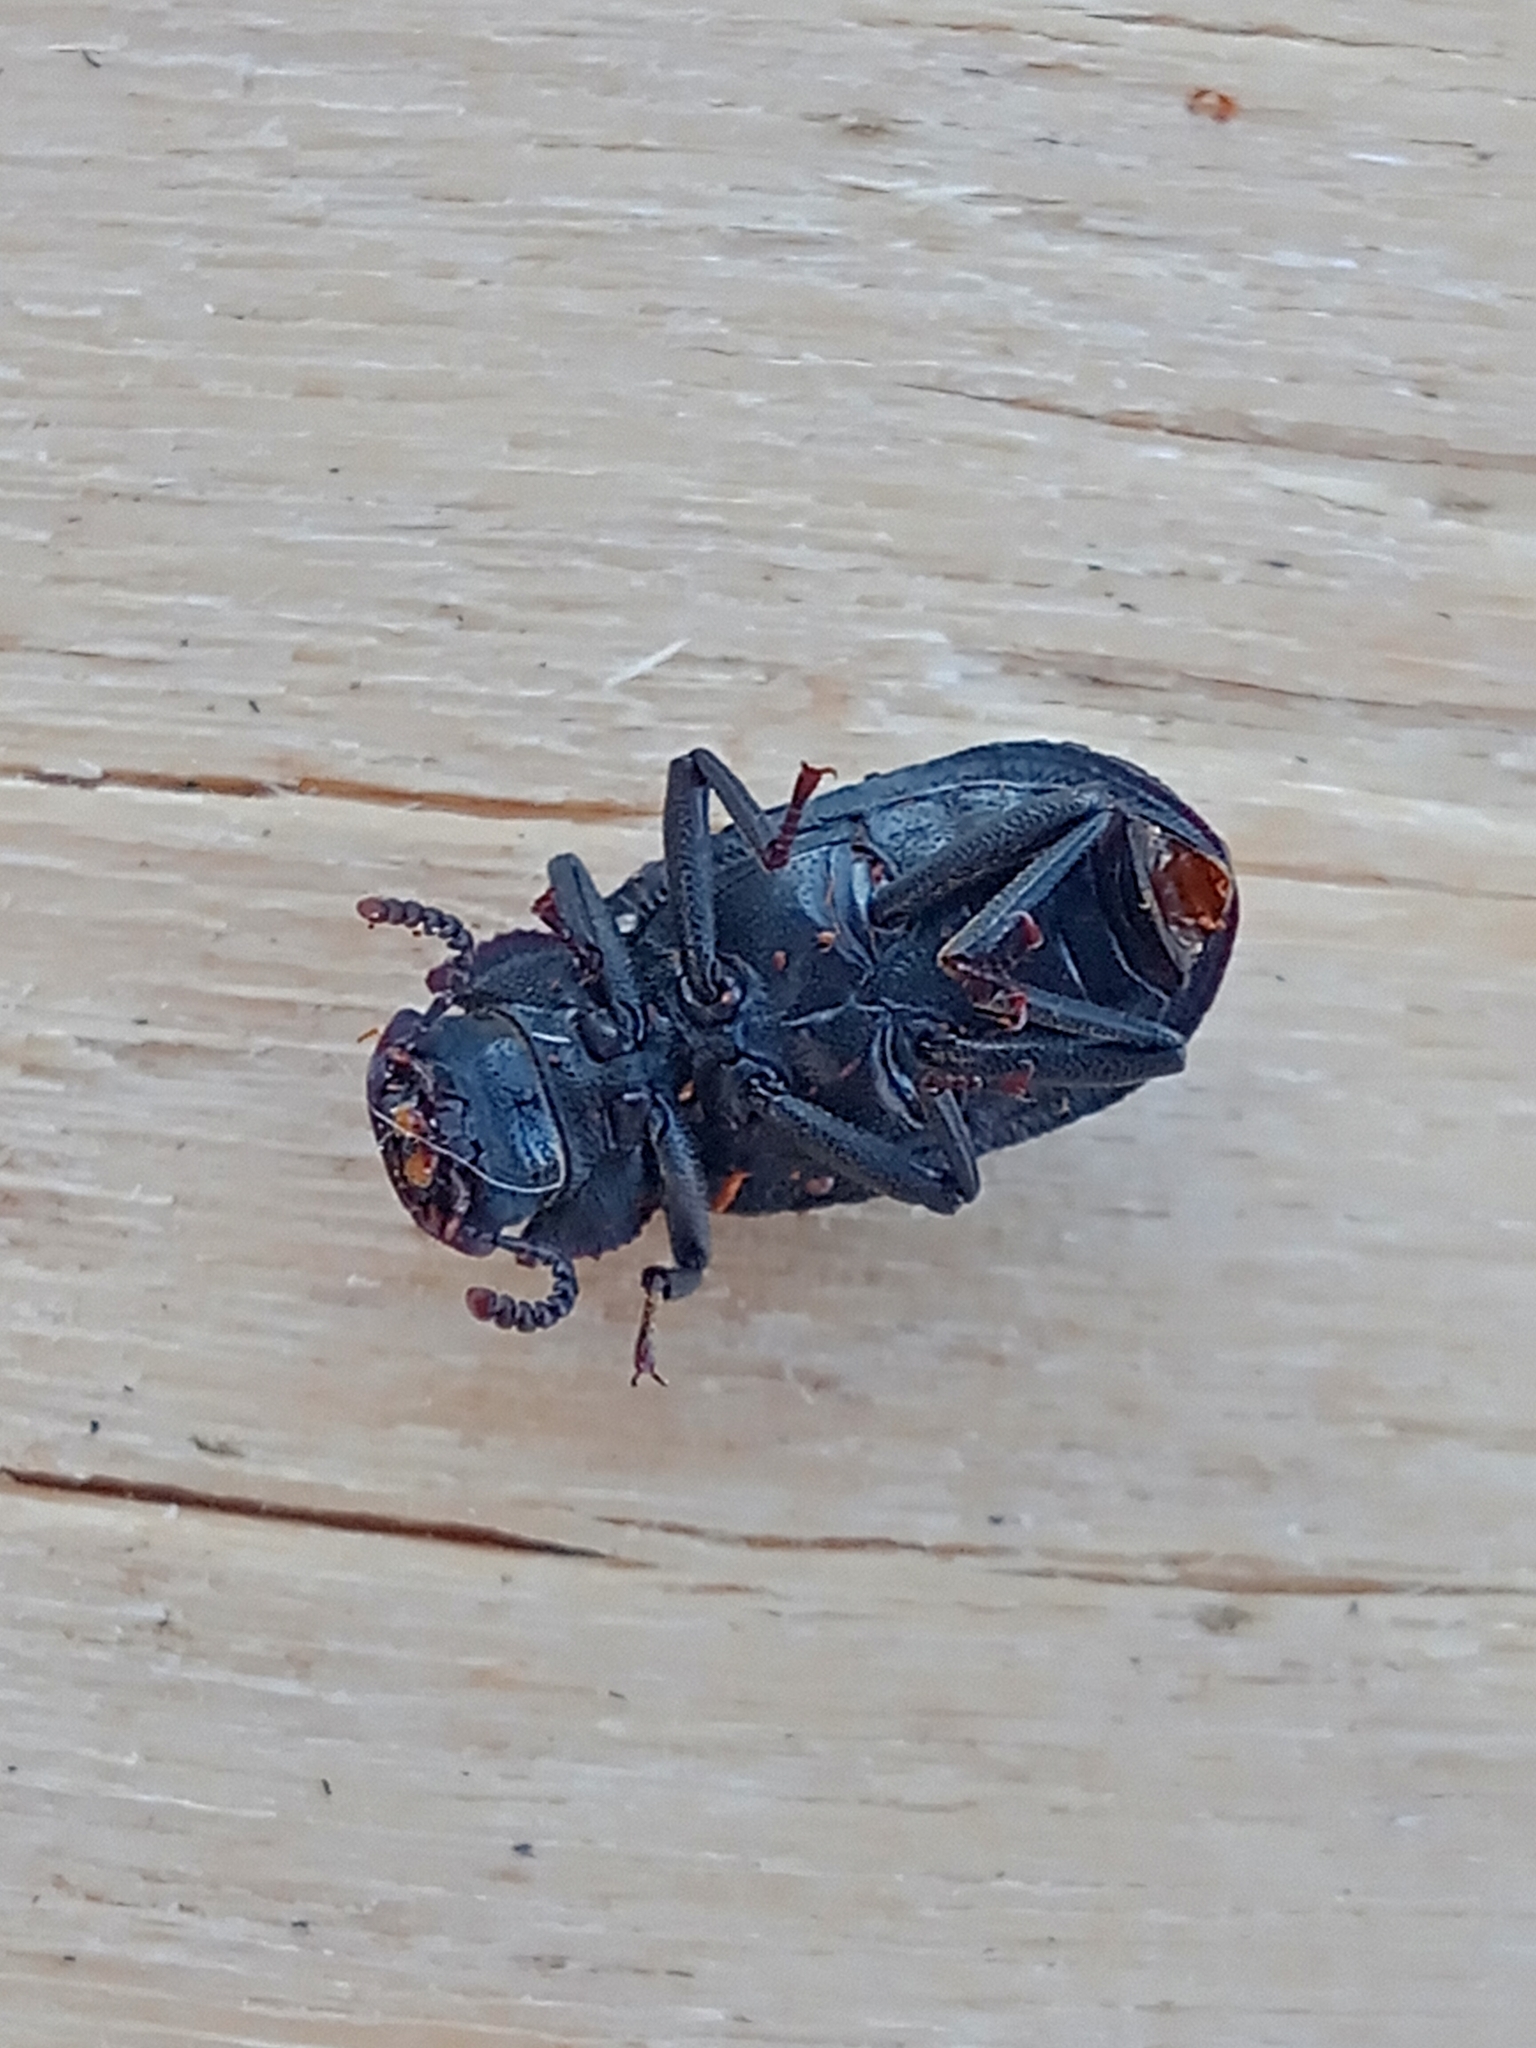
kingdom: Animalia
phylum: Arthropoda
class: Insecta
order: Coleoptera
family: Tenebrionidae
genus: Bolitophagus
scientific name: Bolitophagus reticulatus
